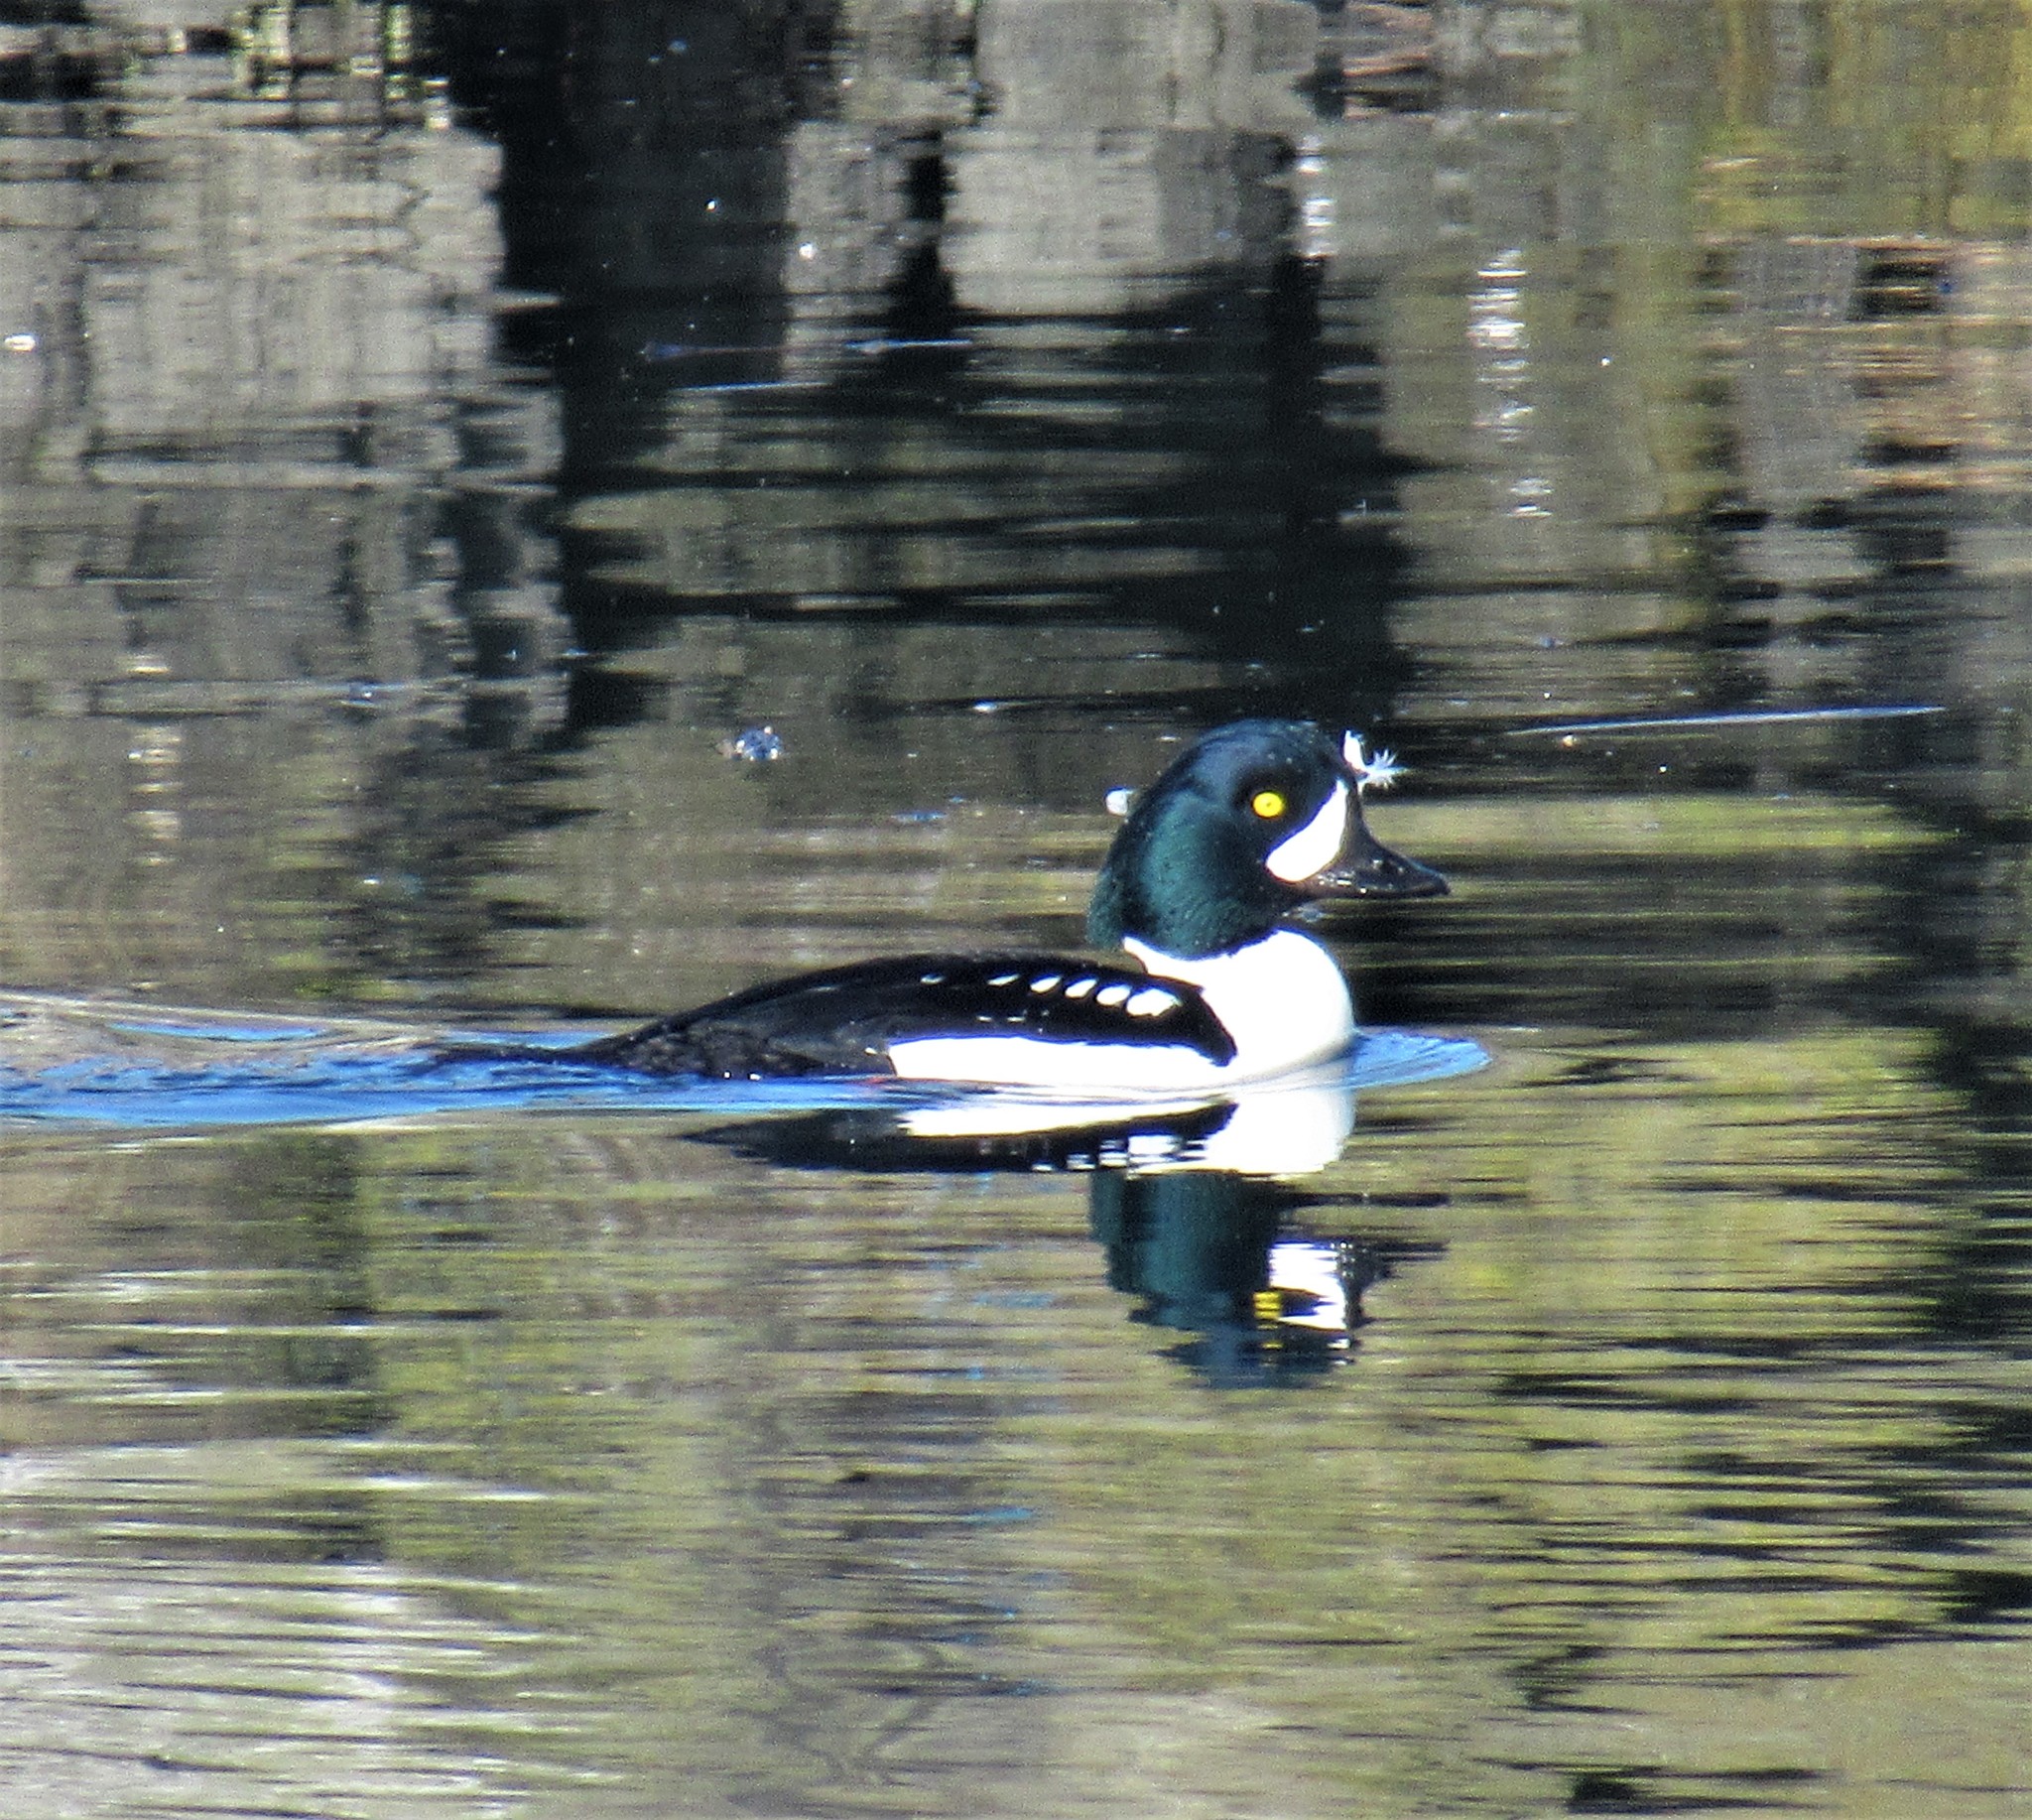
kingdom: Animalia
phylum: Chordata
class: Aves
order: Anseriformes
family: Anatidae
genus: Bucephala
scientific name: Bucephala islandica
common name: Barrow's goldeneye
